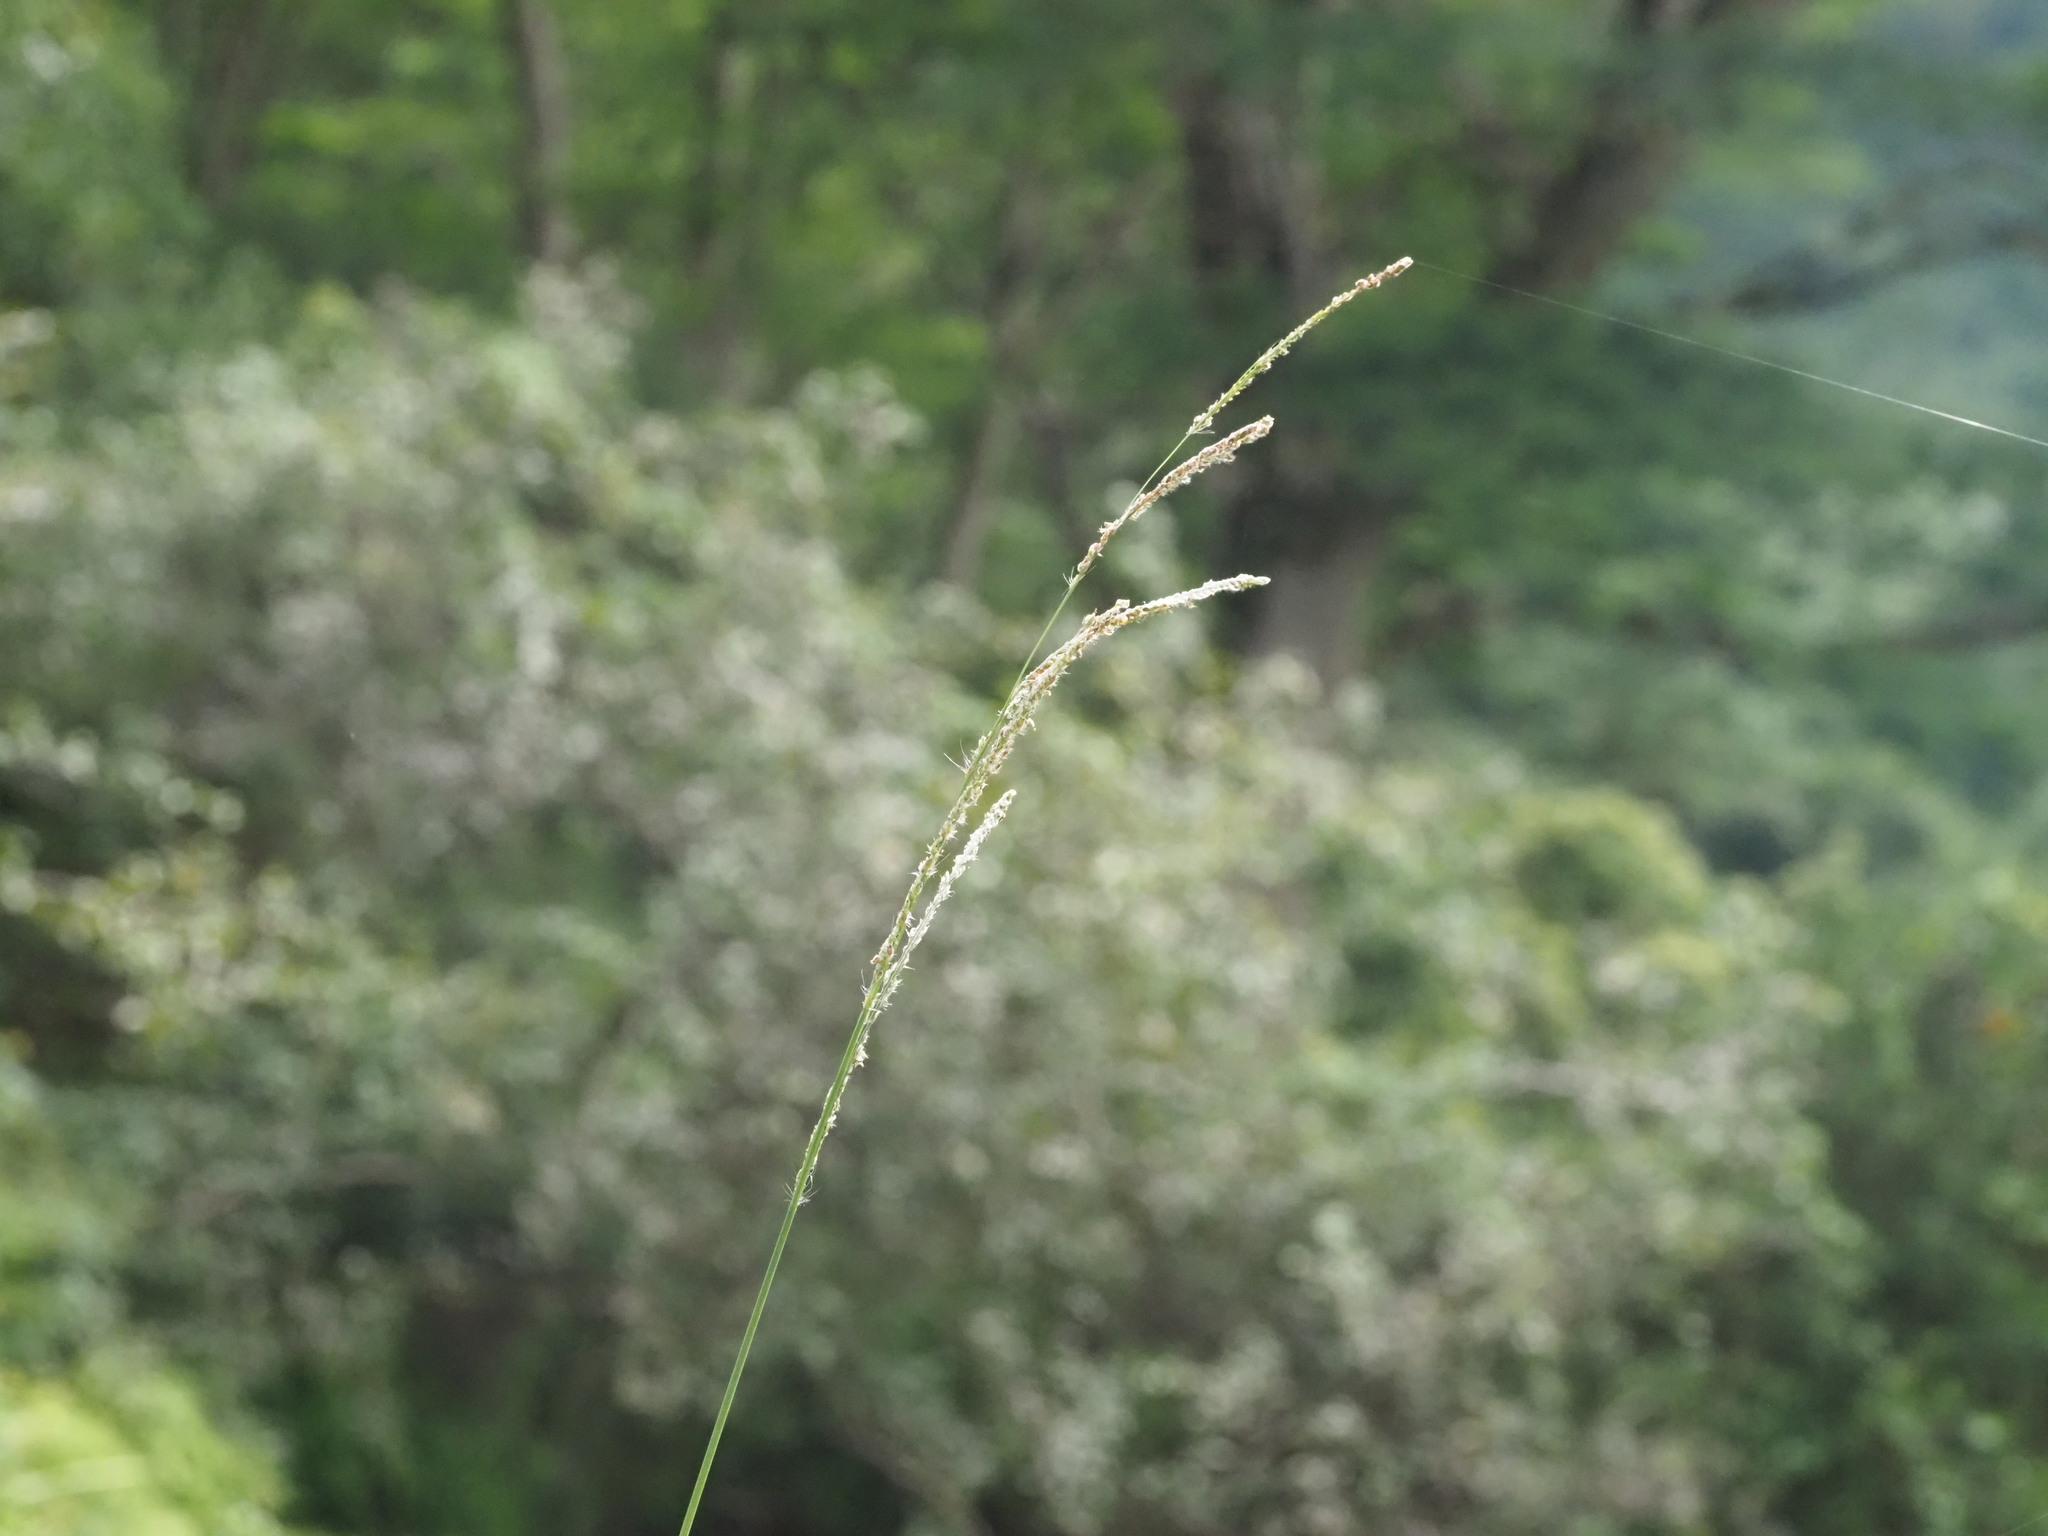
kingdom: Plantae
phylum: Tracheophyta
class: Liliopsida
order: Poales
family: Poaceae
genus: Paspalum
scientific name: Paspalum urvillei
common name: Vasey's grass
